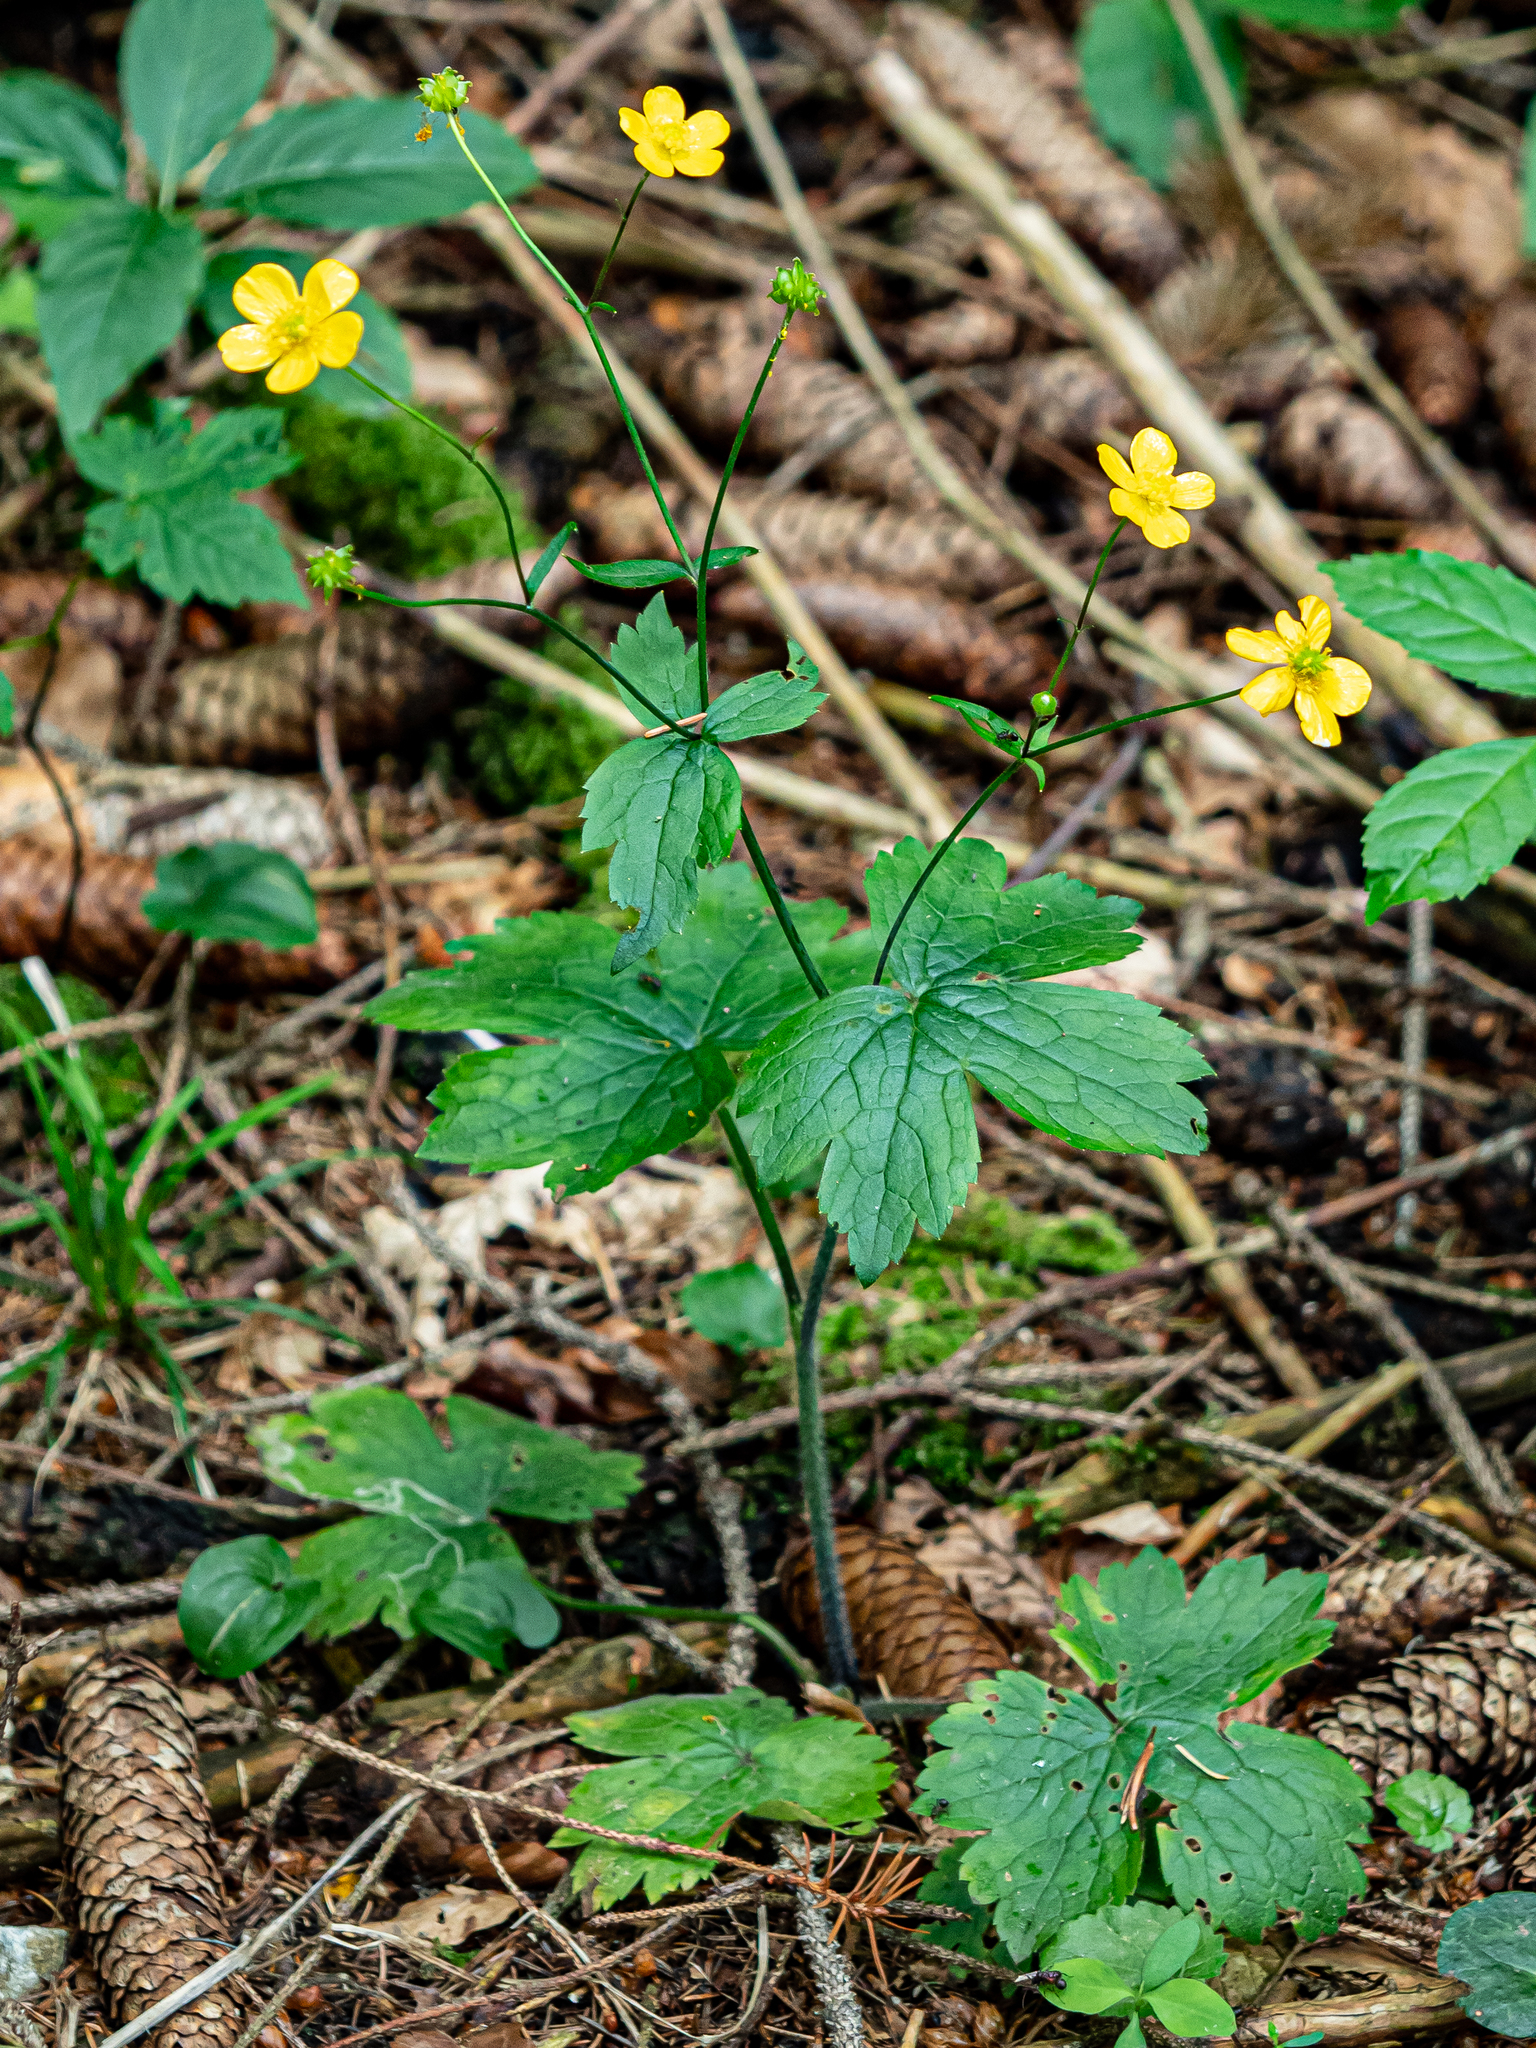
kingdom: Plantae
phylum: Tracheophyta
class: Magnoliopsida
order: Ranunculales
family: Ranunculaceae
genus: Ranunculus
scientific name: Ranunculus lanuginosus
